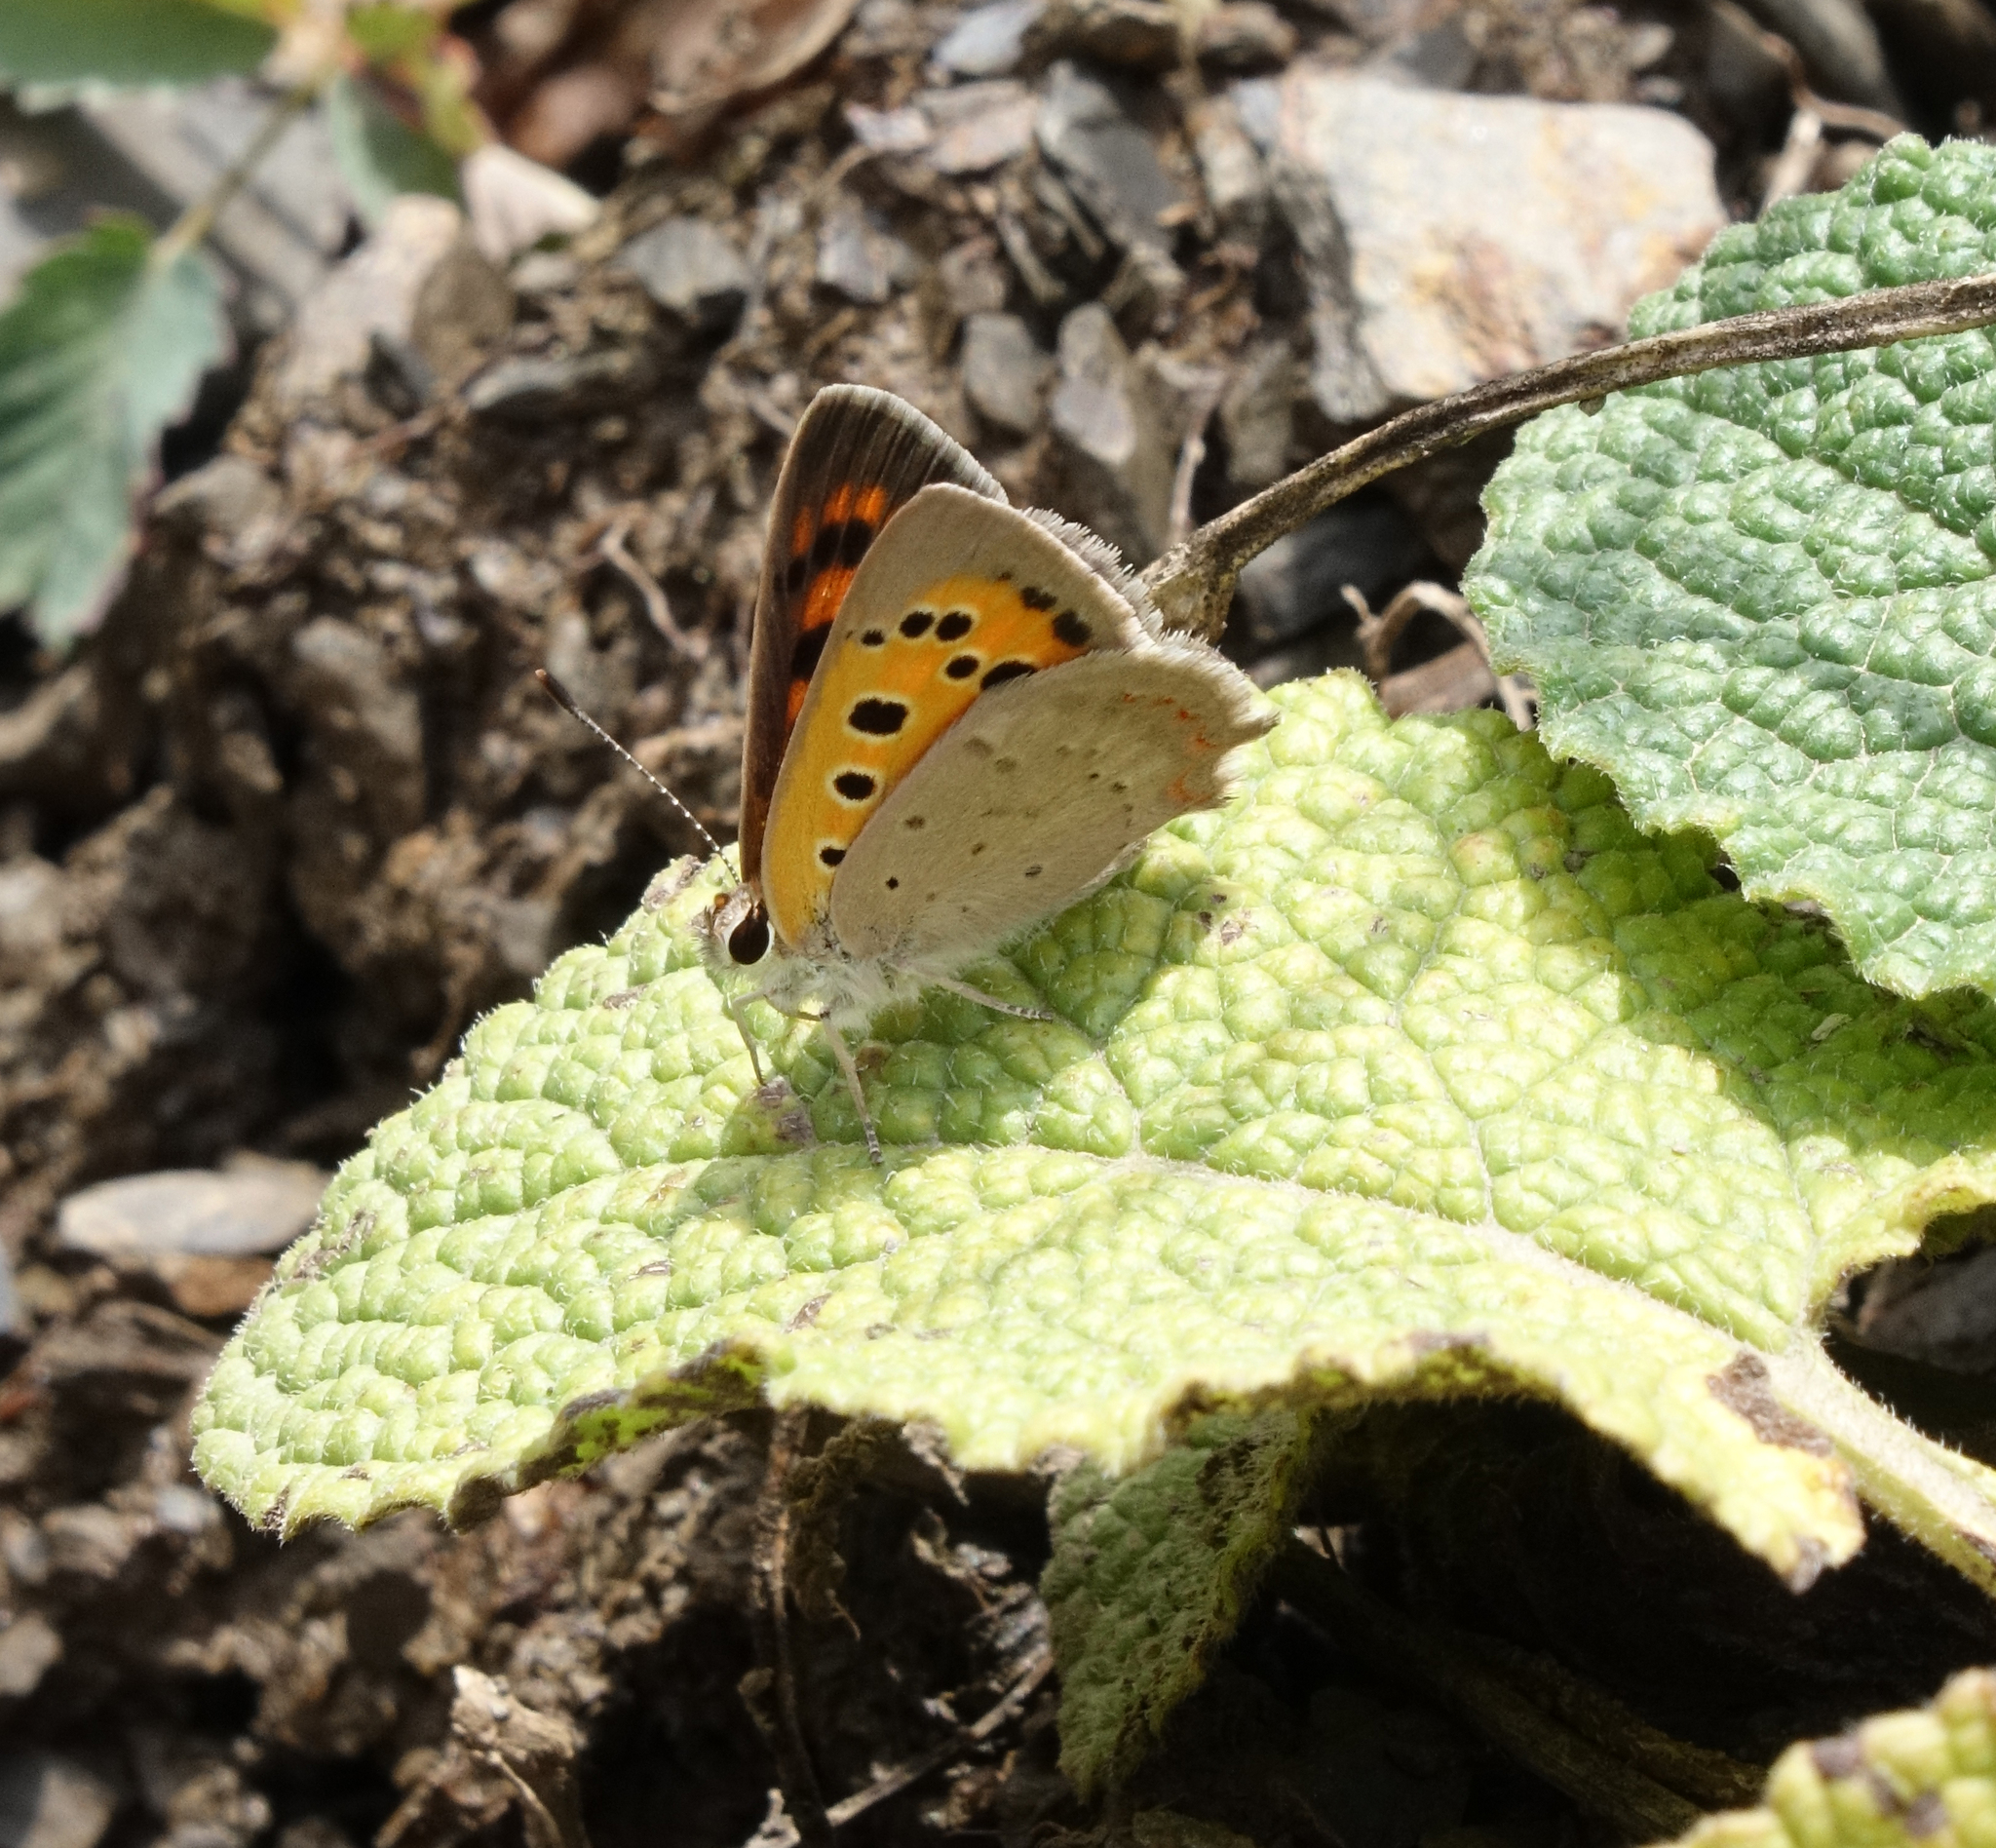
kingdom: Animalia
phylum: Arthropoda
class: Insecta
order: Lepidoptera
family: Lycaenidae
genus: Lycaena
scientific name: Lycaena phlaeas
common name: Small copper
